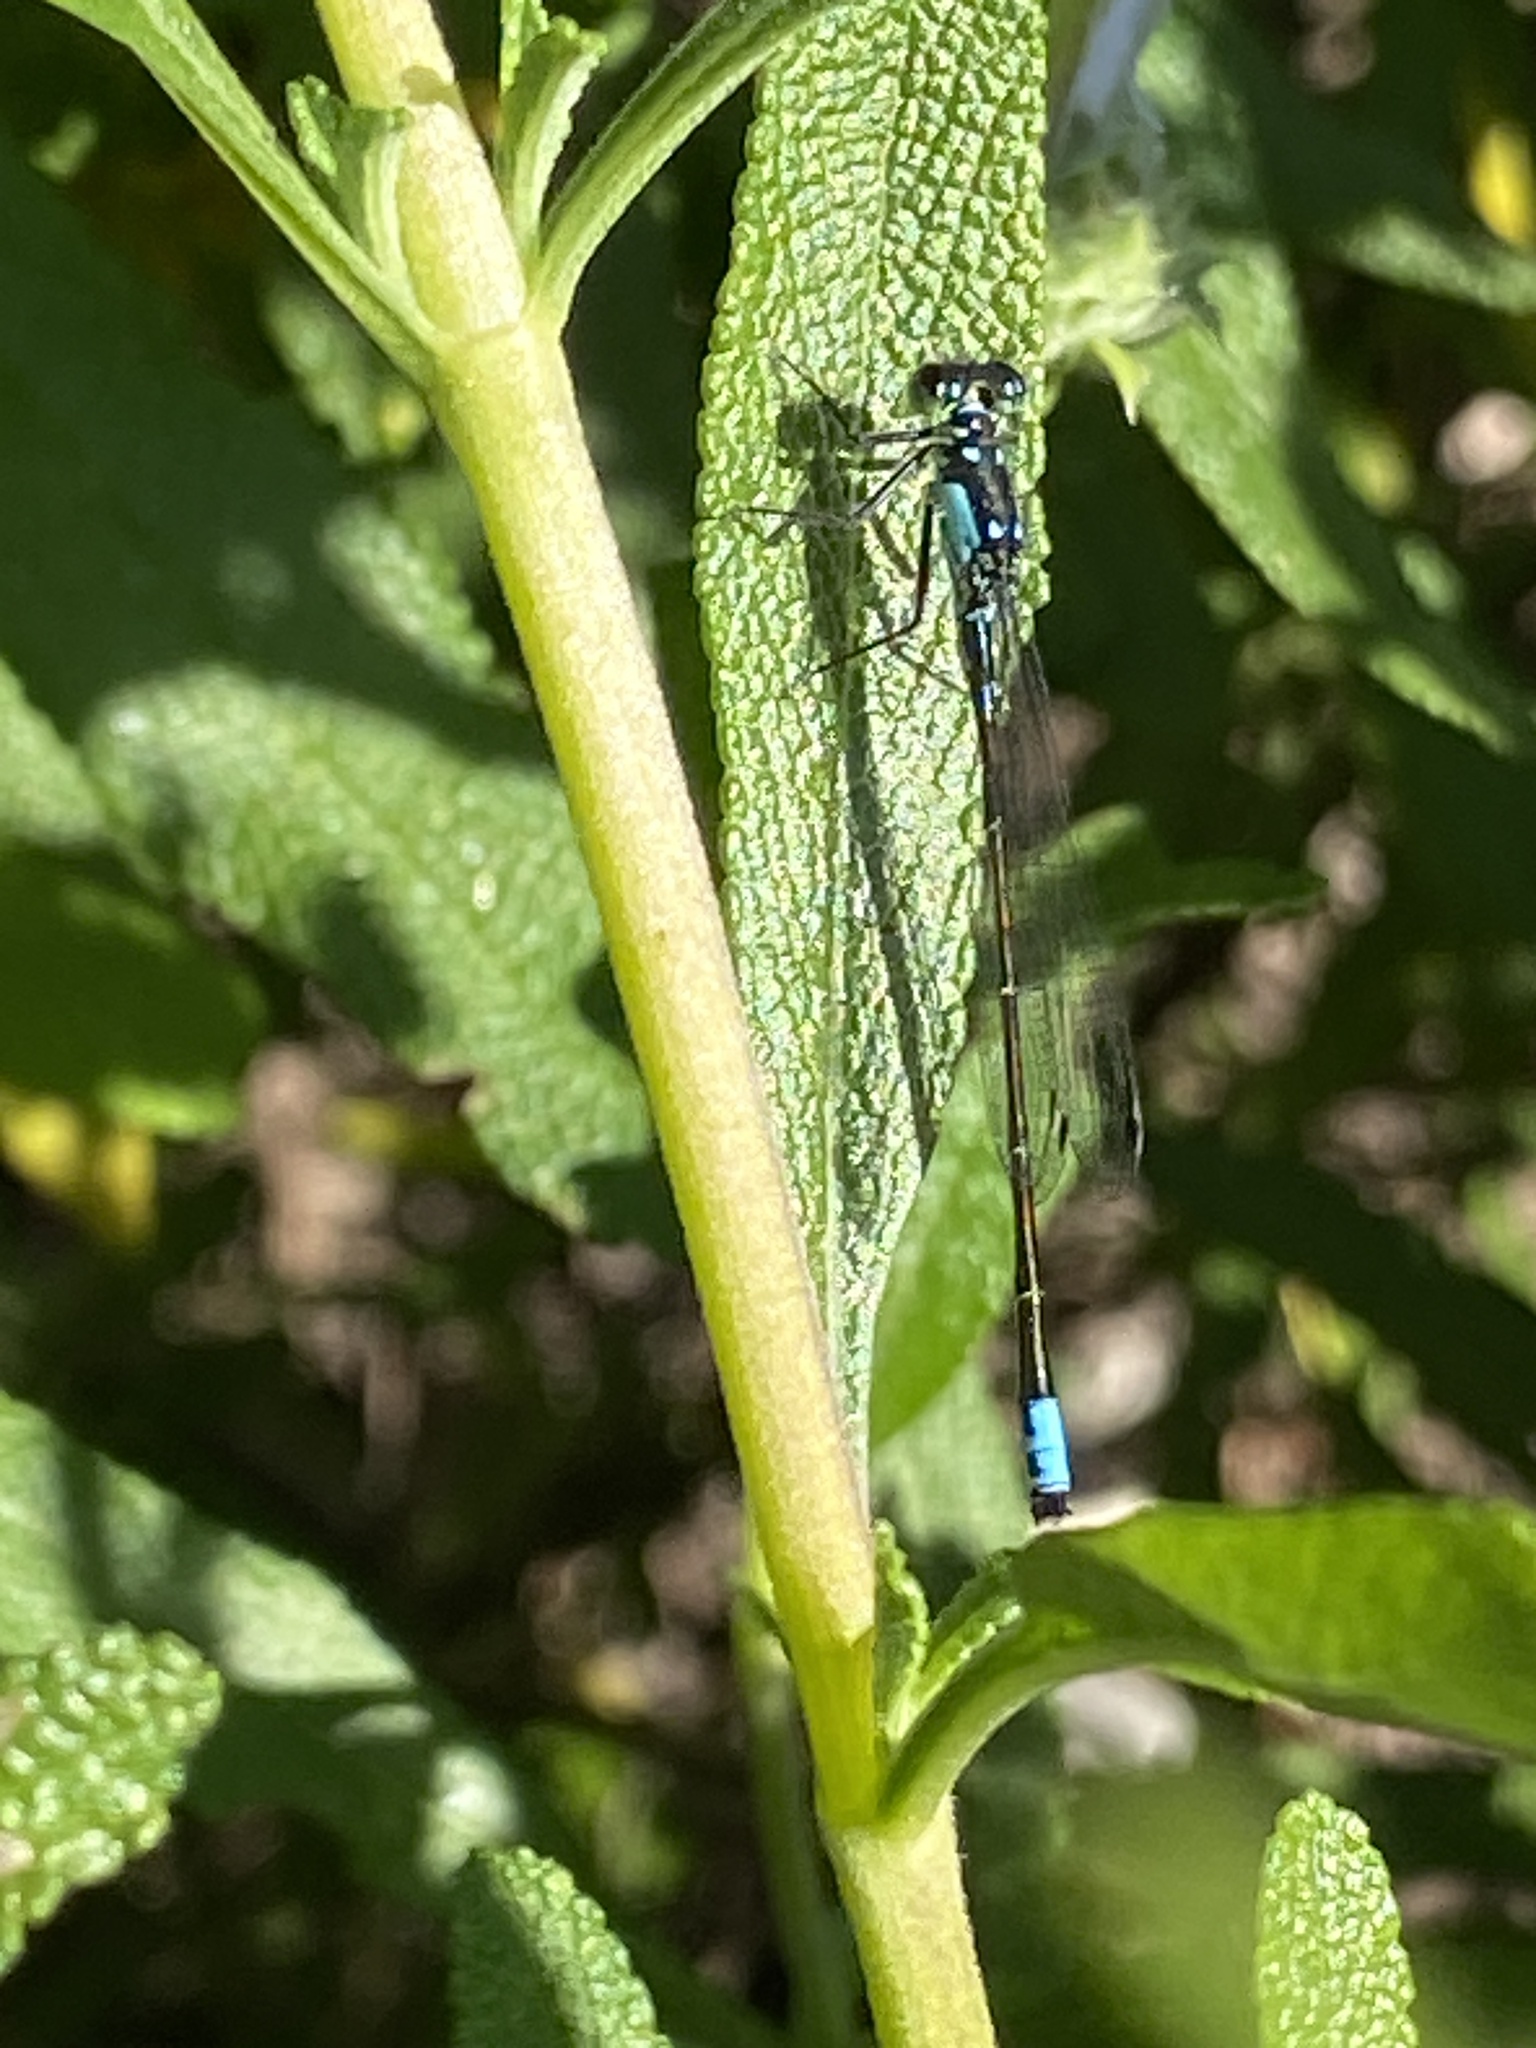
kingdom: Animalia
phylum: Arthropoda
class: Insecta
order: Odonata
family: Coenagrionidae
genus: Ischnura
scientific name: Ischnura cervula
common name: Pacific forktail
